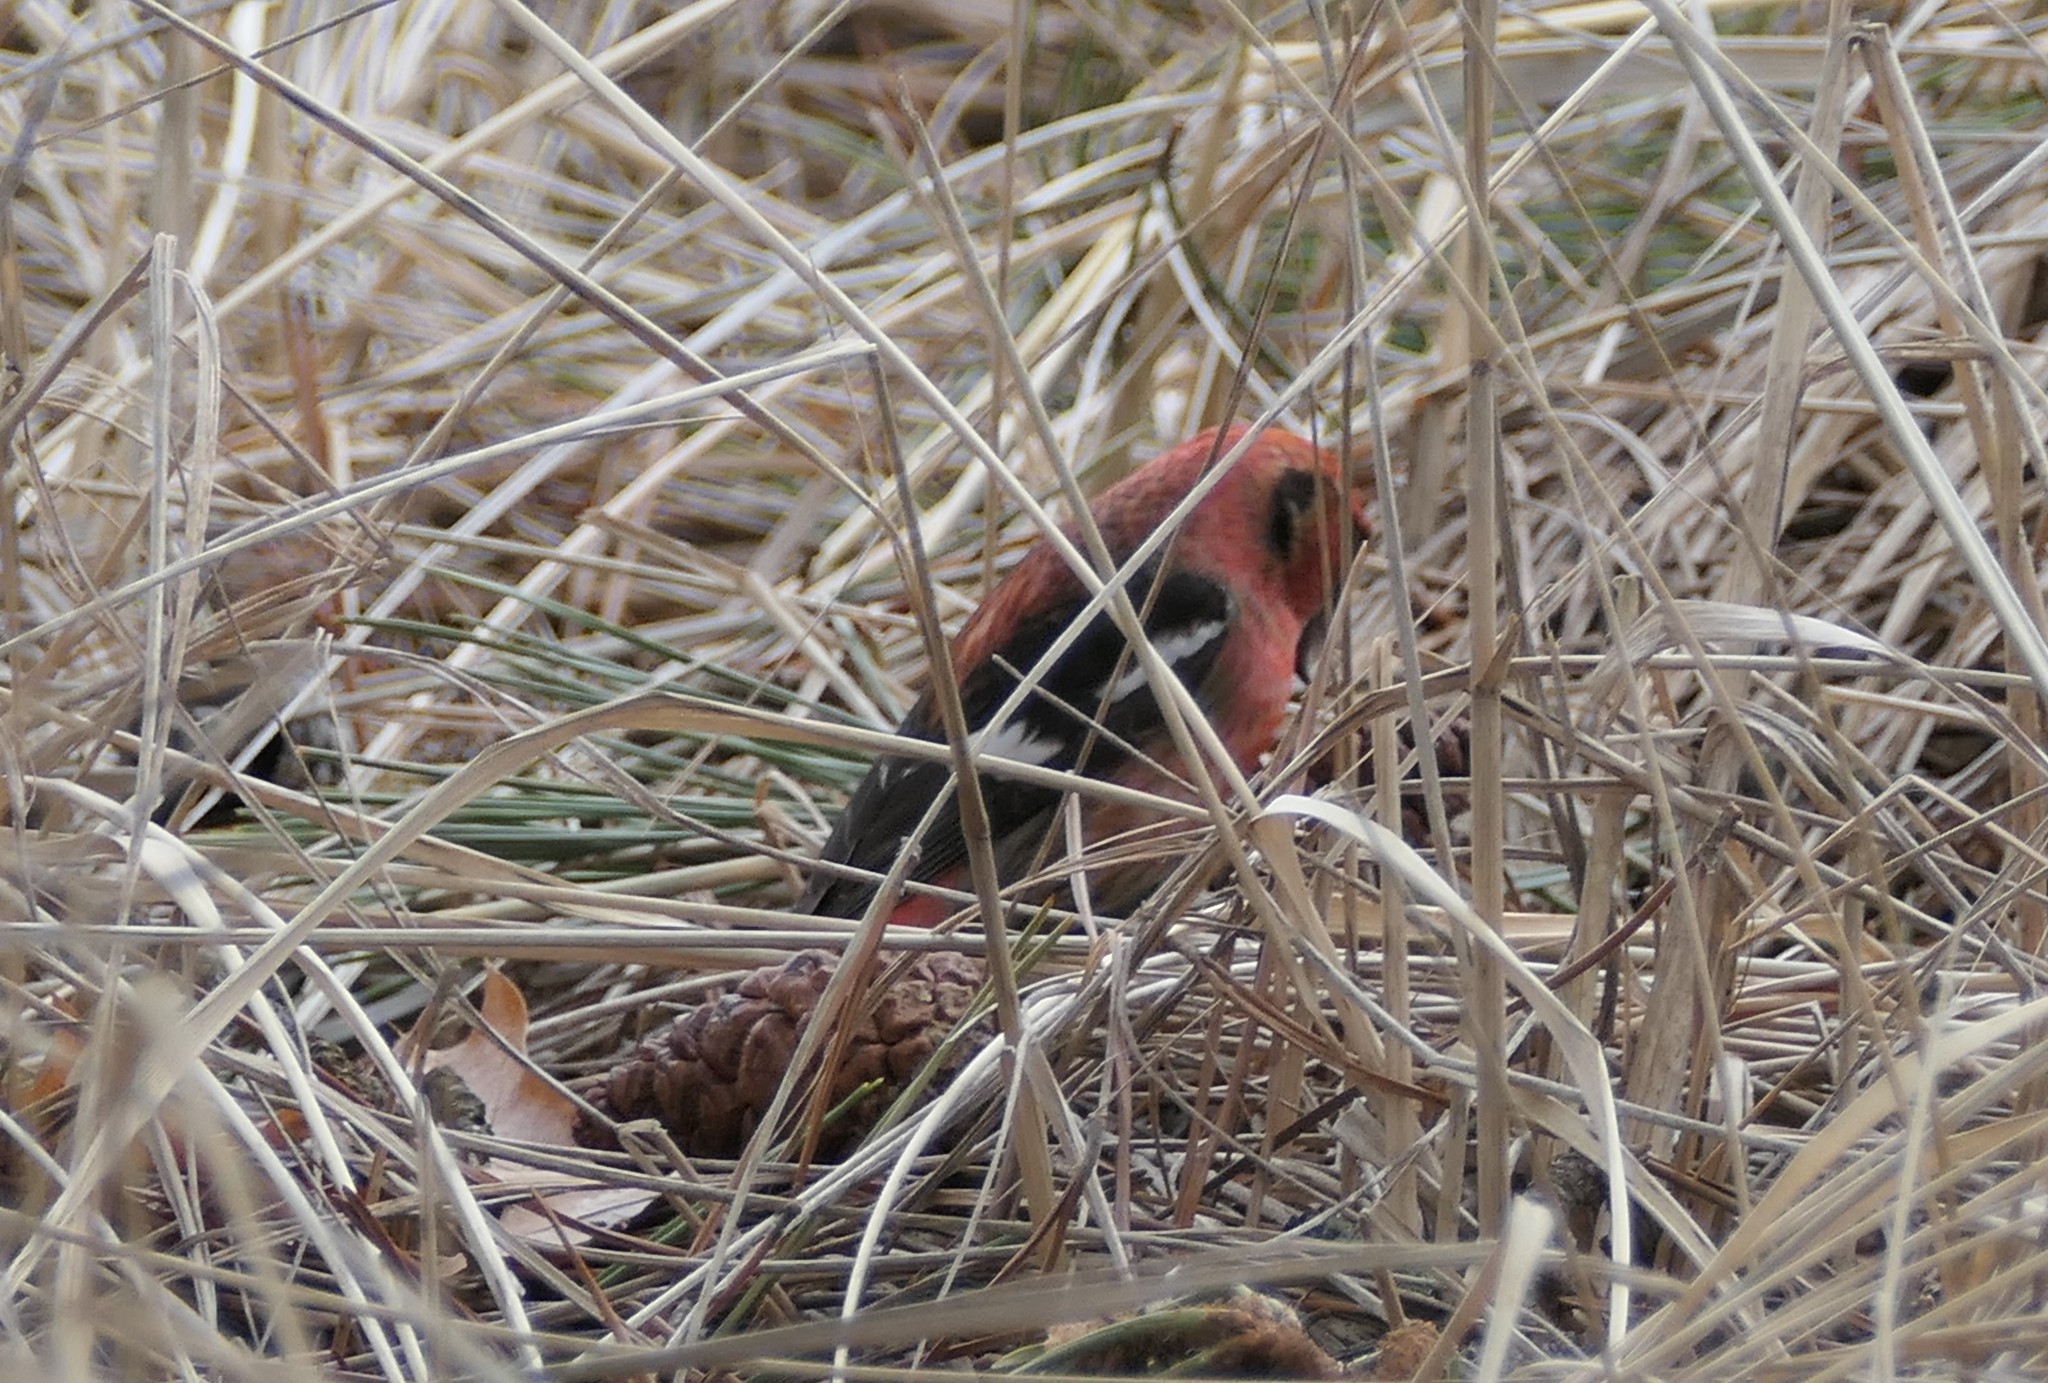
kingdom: Animalia
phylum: Chordata
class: Aves
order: Passeriformes
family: Fringillidae
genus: Loxia
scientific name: Loxia leucoptera
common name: Two-barred crossbill
